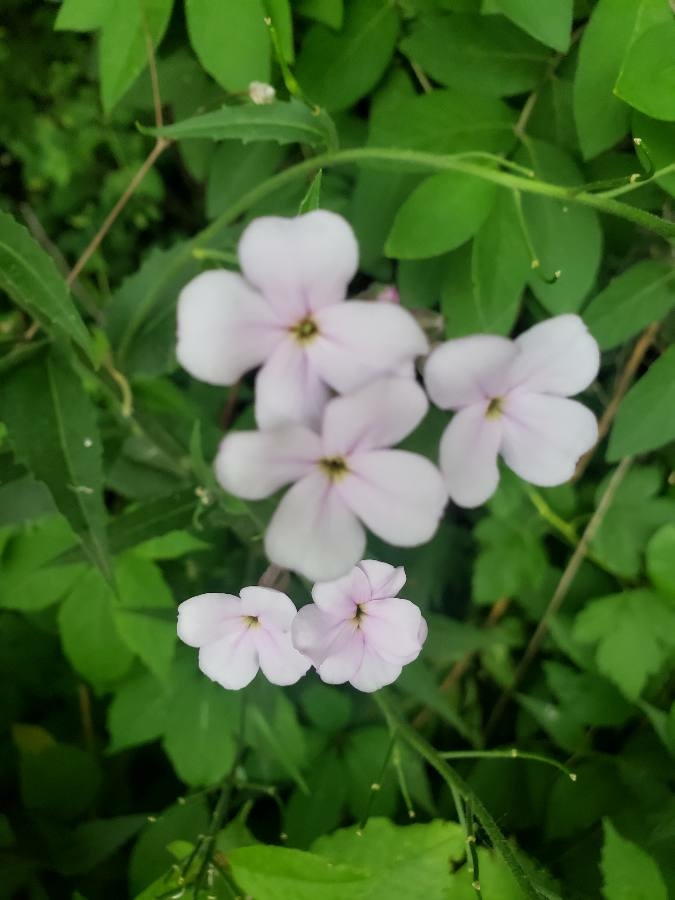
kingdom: Plantae
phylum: Tracheophyta
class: Magnoliopsida
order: Brassicales
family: Brassicaceae
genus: Hesperis
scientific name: Hesperis matronalis
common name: Dame's-violet
